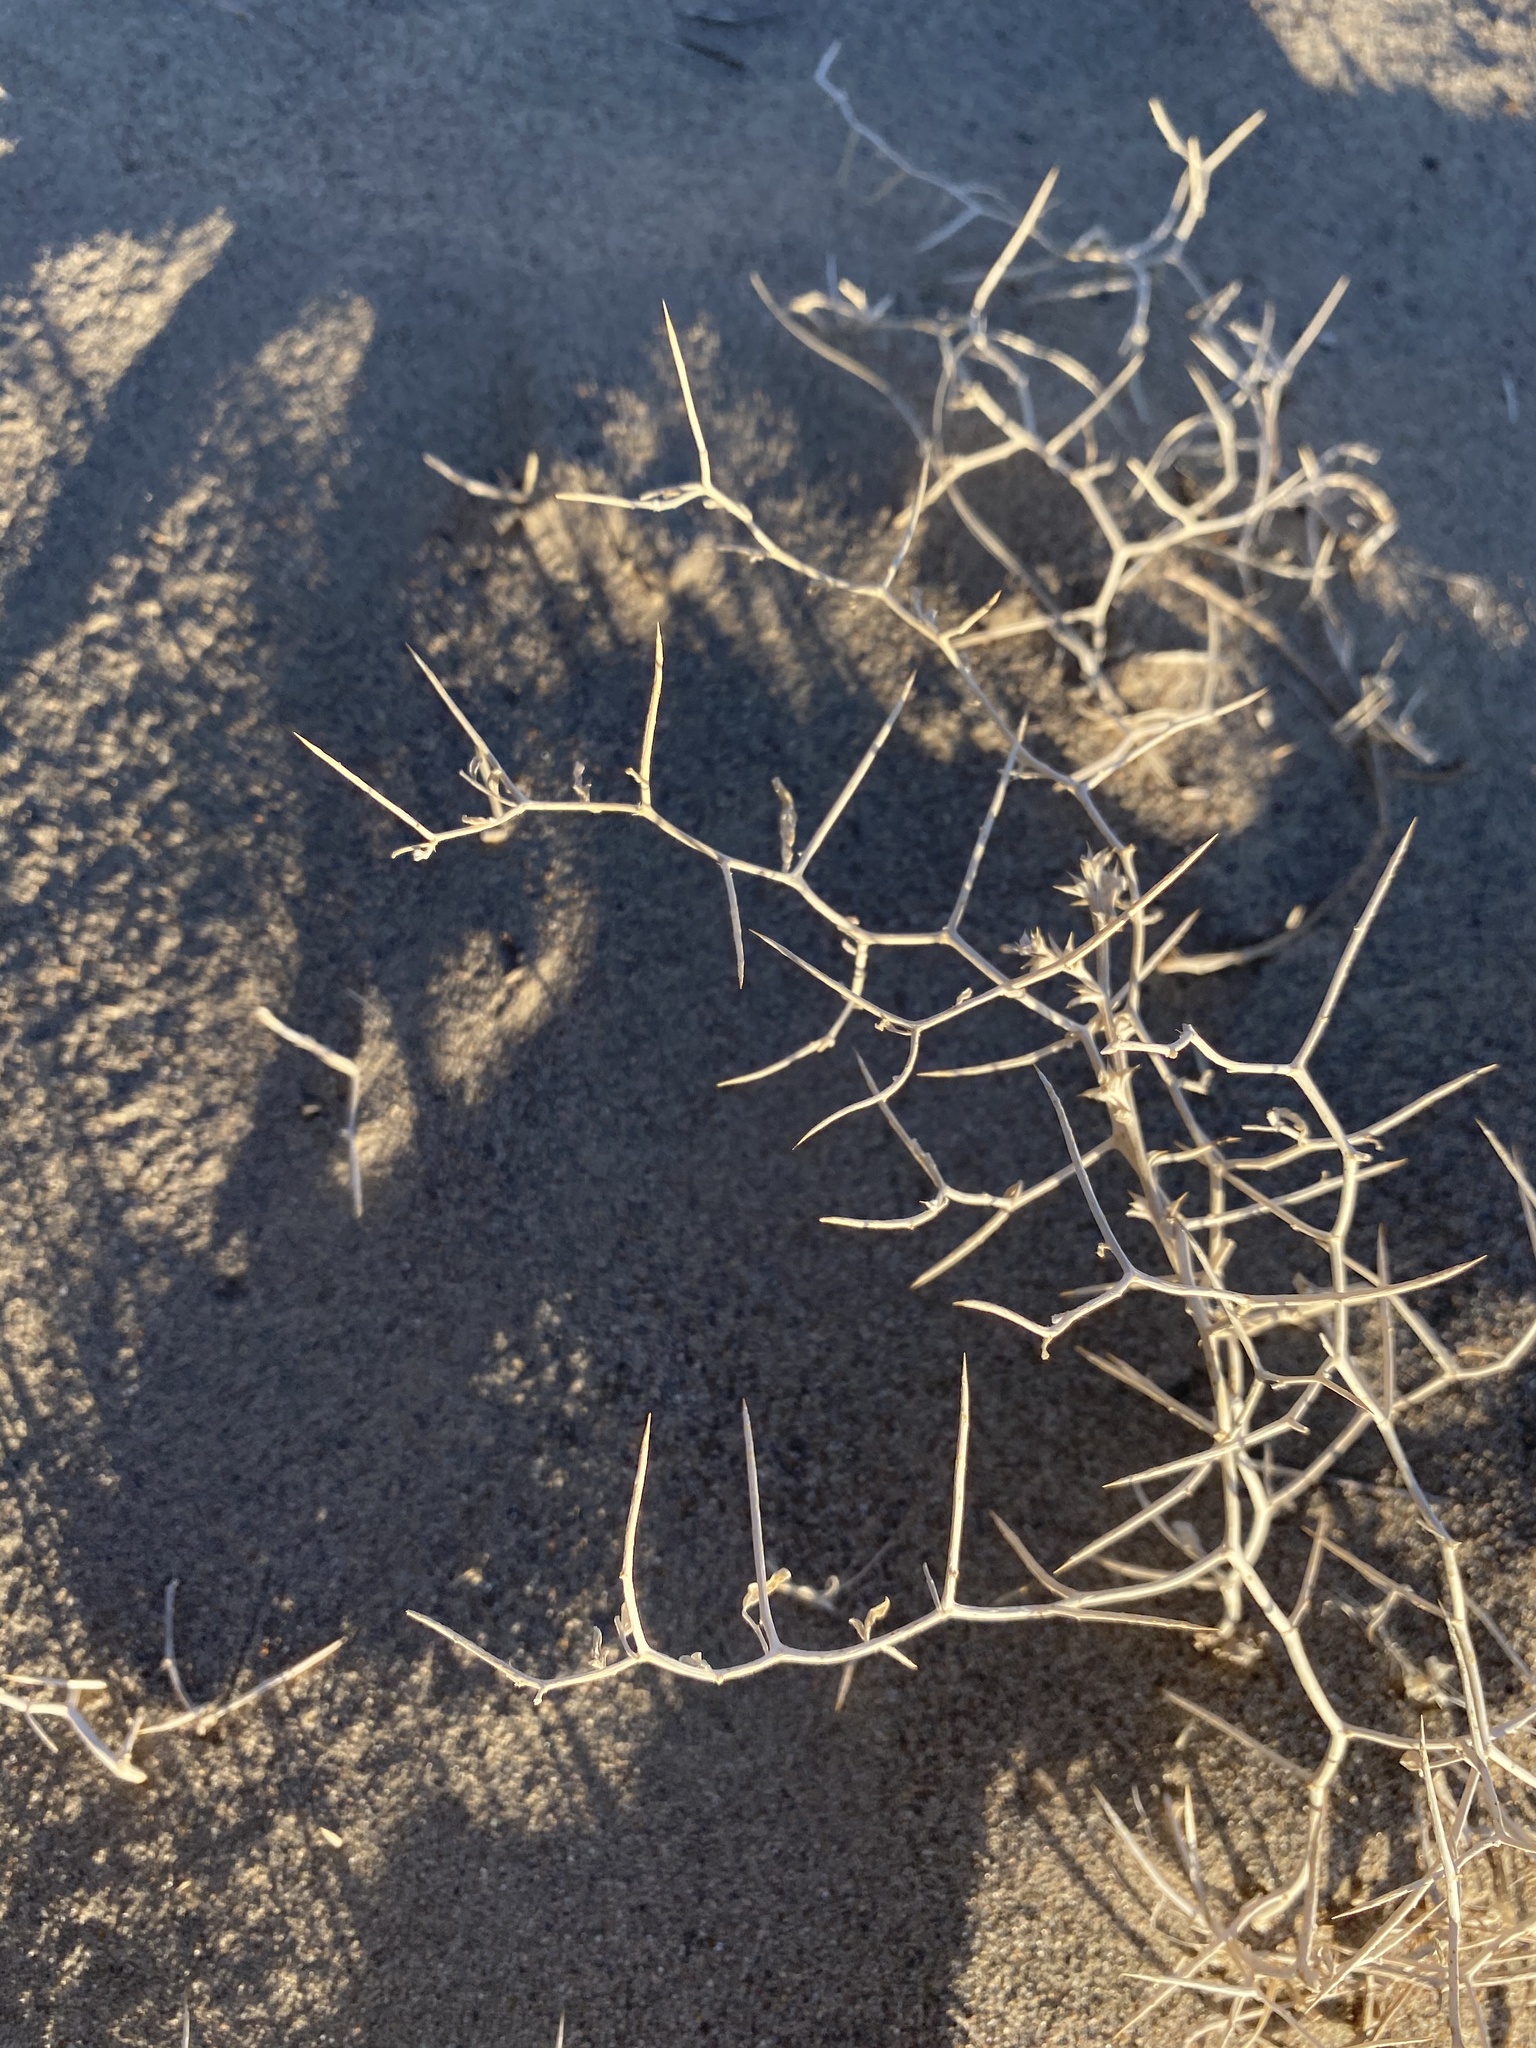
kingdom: Plantae
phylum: Tracheophyta
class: Magnoliopsida
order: Fabales
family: Fabaceae
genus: Psorothamnus
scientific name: Psorothamnus kingii
